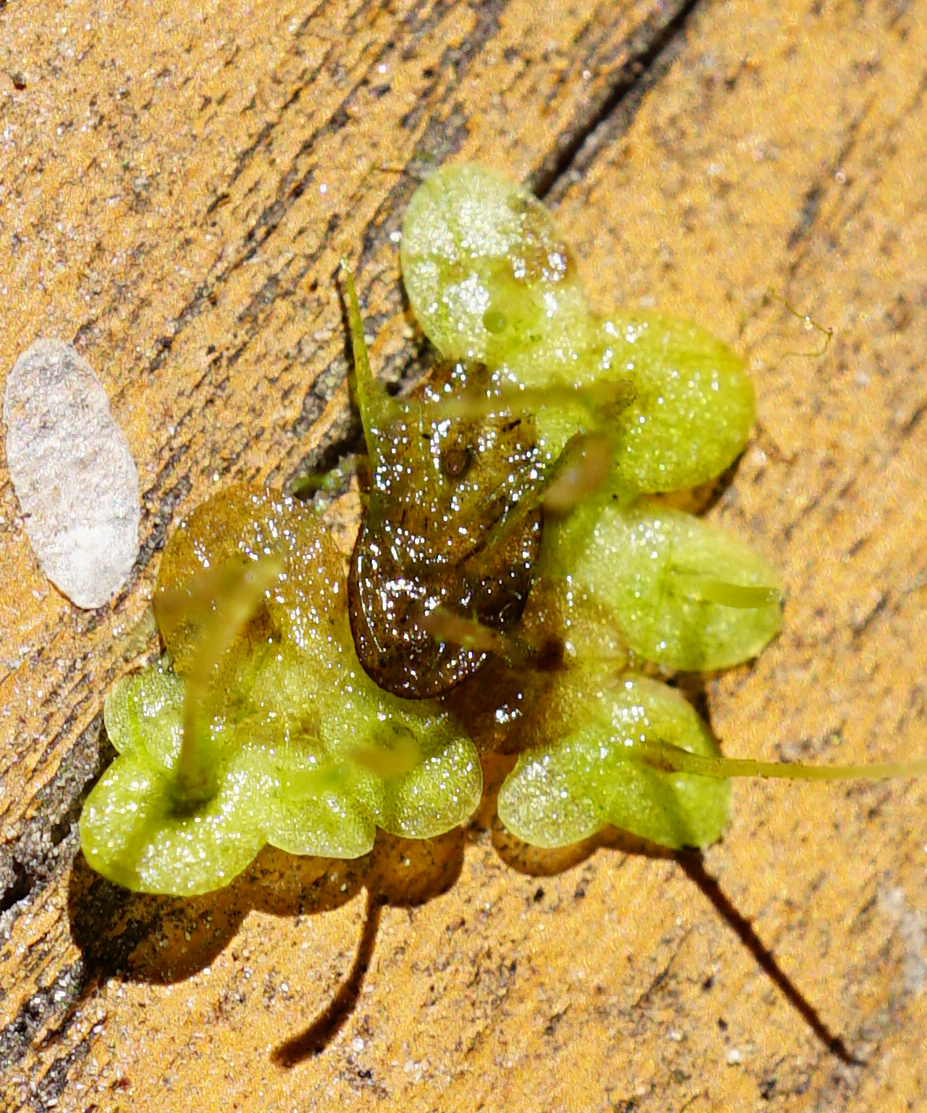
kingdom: Plantae
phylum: Tracheophyta
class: Liliopsida
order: Alismatales
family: Araceae
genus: Spirodela
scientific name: Spirodela polyrhiza
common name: Great duckweed
